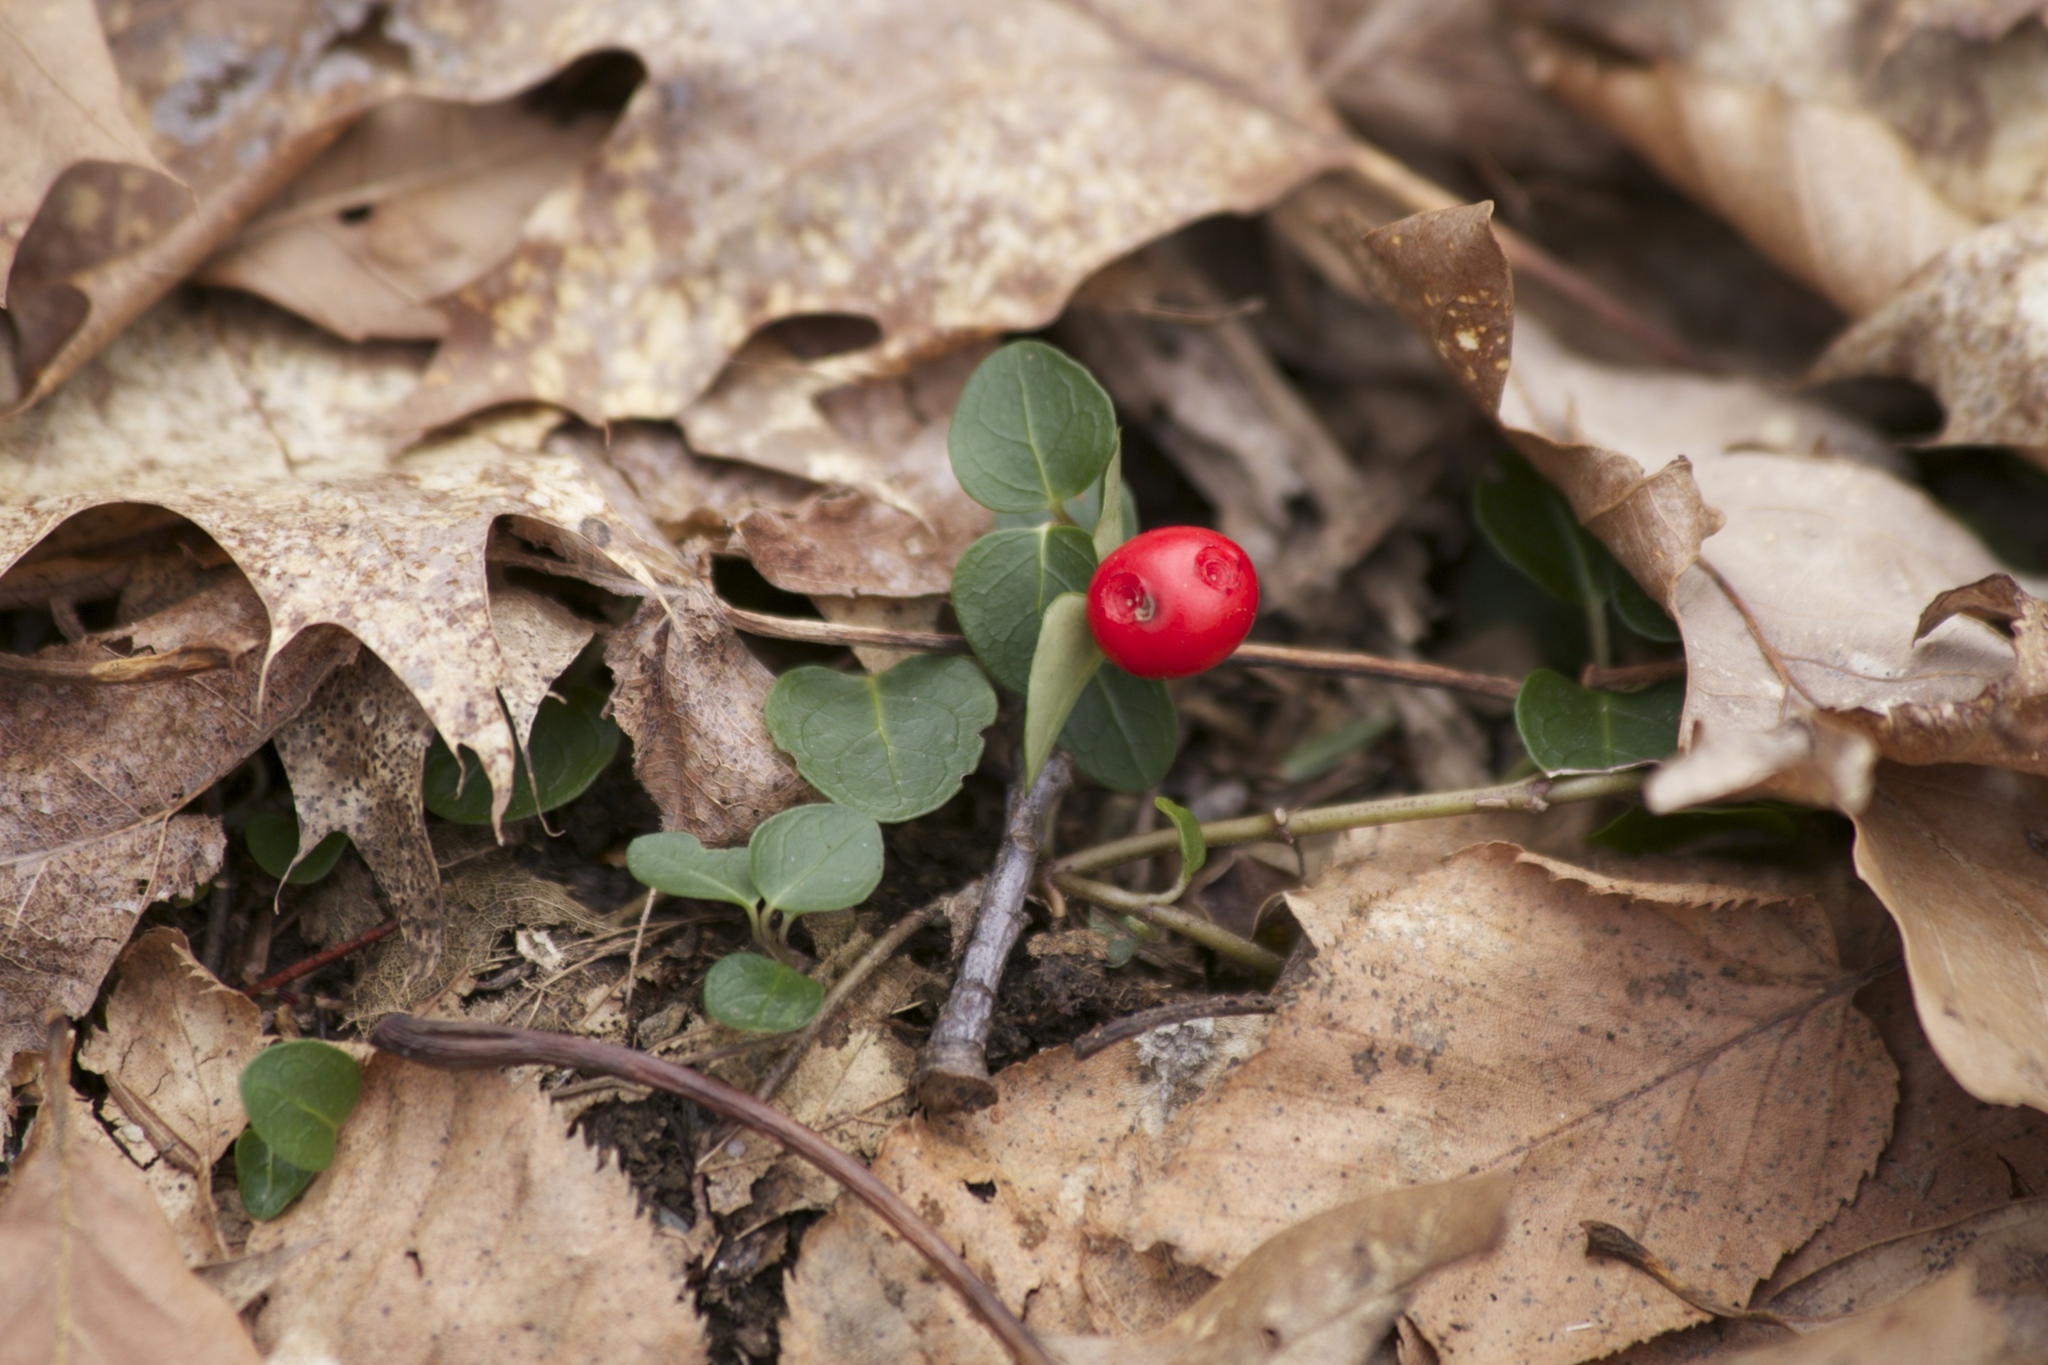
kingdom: Plantae
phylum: Tracheophyta
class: Magnoliopsida
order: Gentianales
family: Rubiaceae
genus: Mitchella
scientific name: Mitchella repens
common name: Partridge-berry
